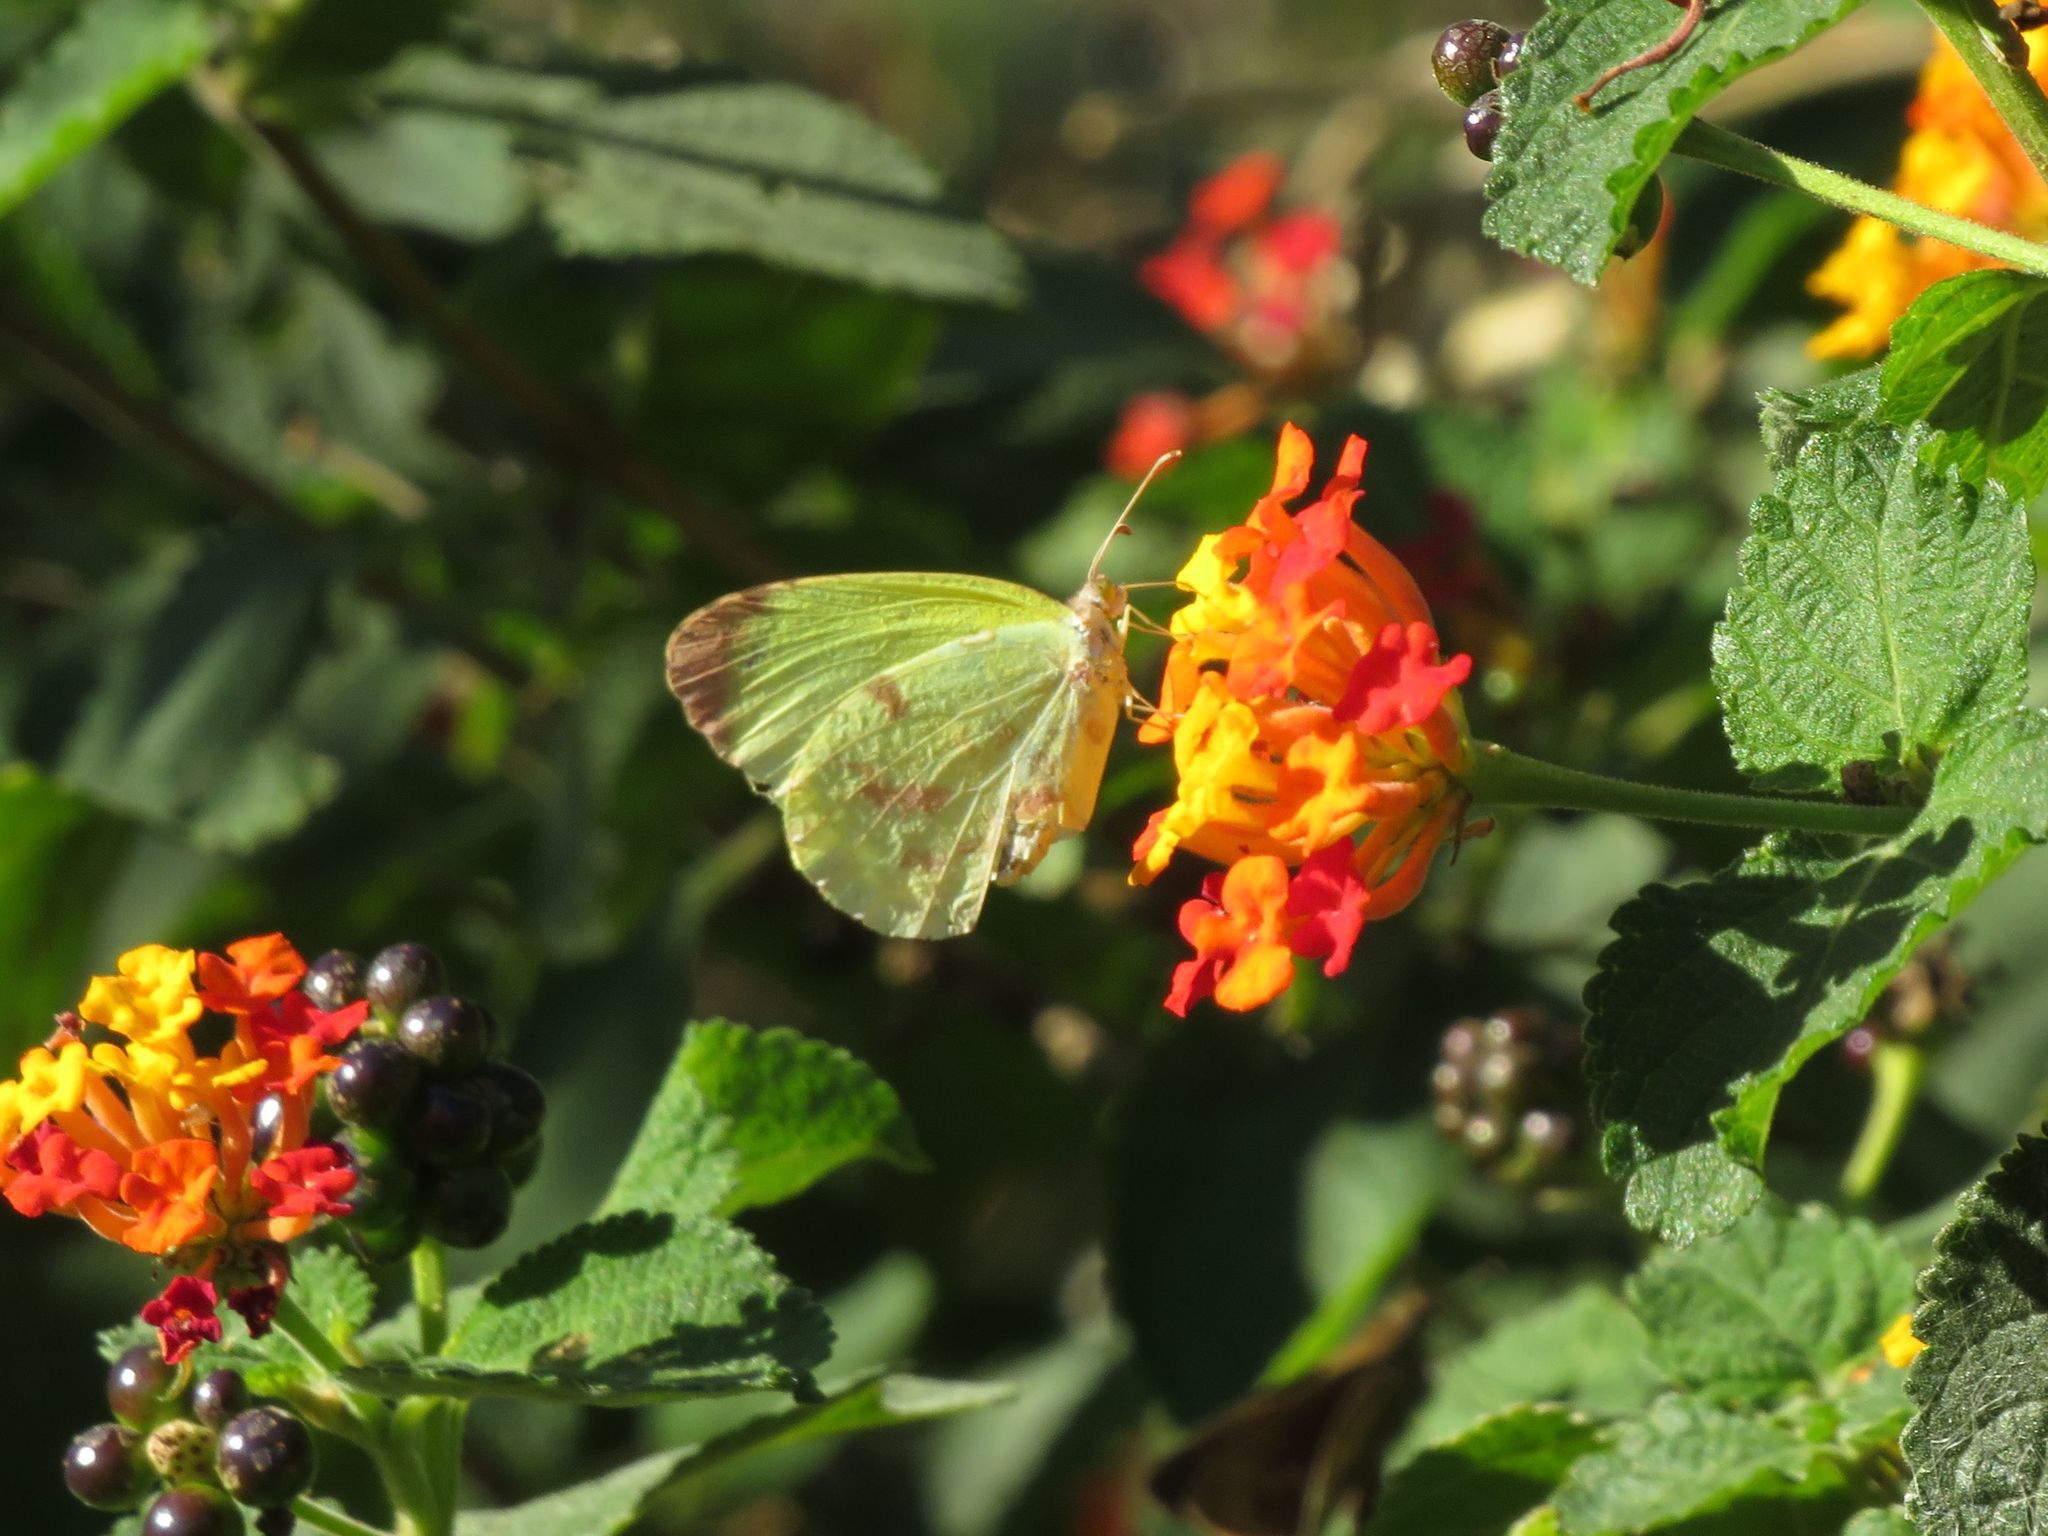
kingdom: Animalia
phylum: Arthropoda
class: Insecta
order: Lepidoptera
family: Pieridae
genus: Teriocolias
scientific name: Teriocolias
